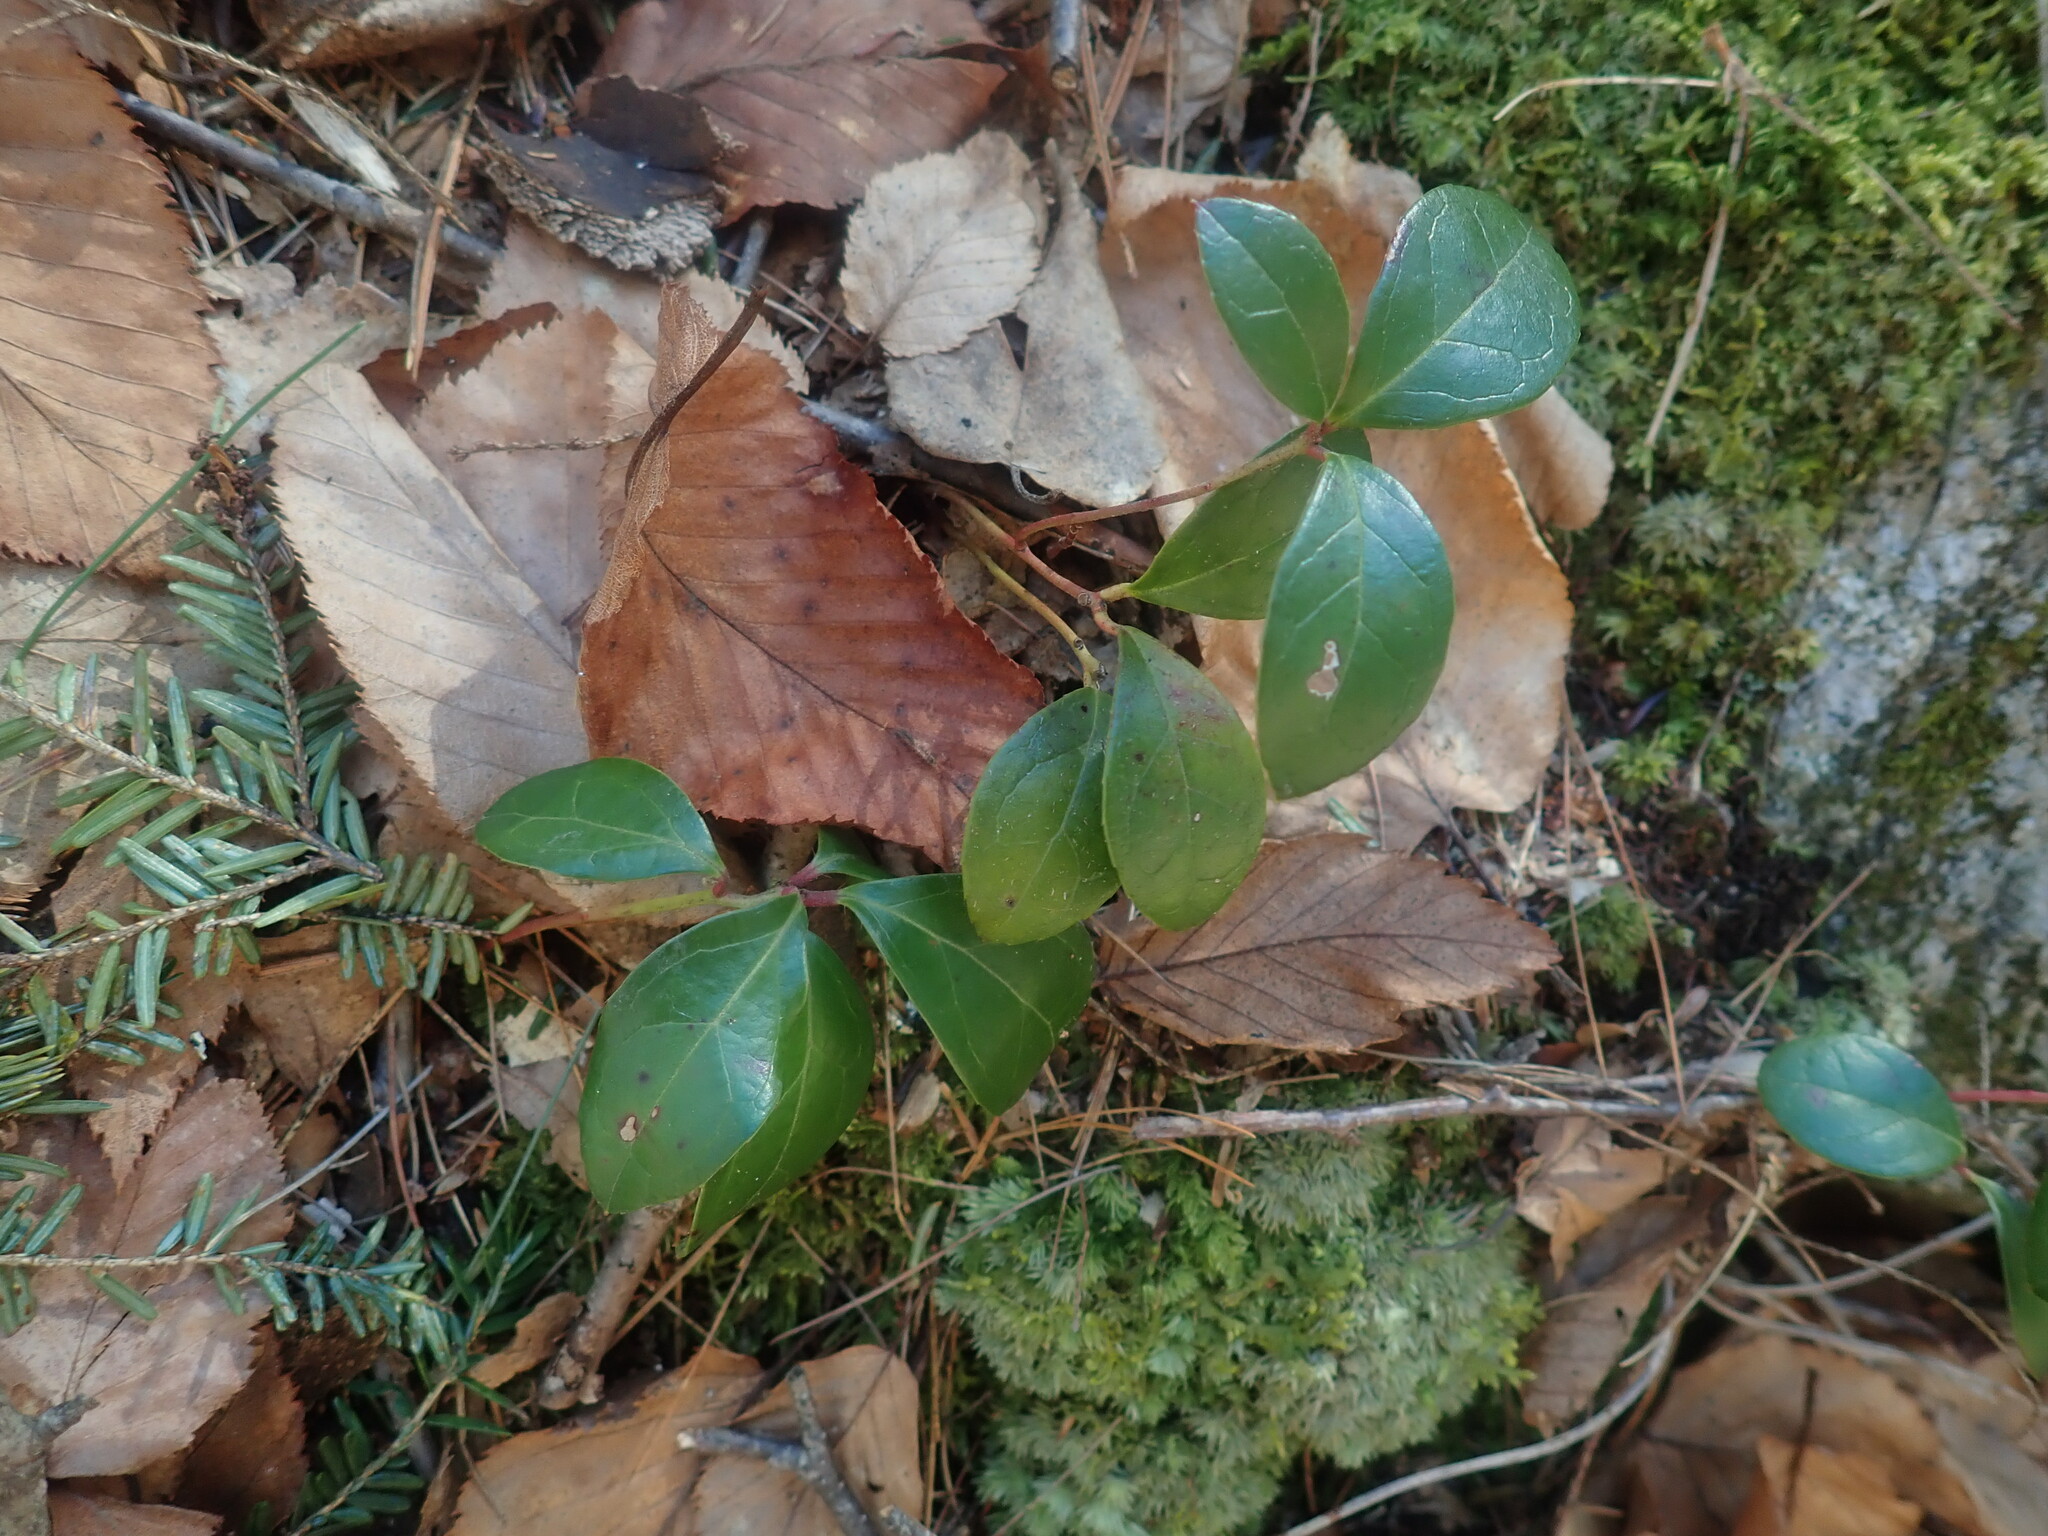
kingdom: Plantae
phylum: Tracheophyta
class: Magnoliopsida
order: Ericales
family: Ericaceae
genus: Gaultheria
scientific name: Gaultheria procumbens
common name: Checkerberry
